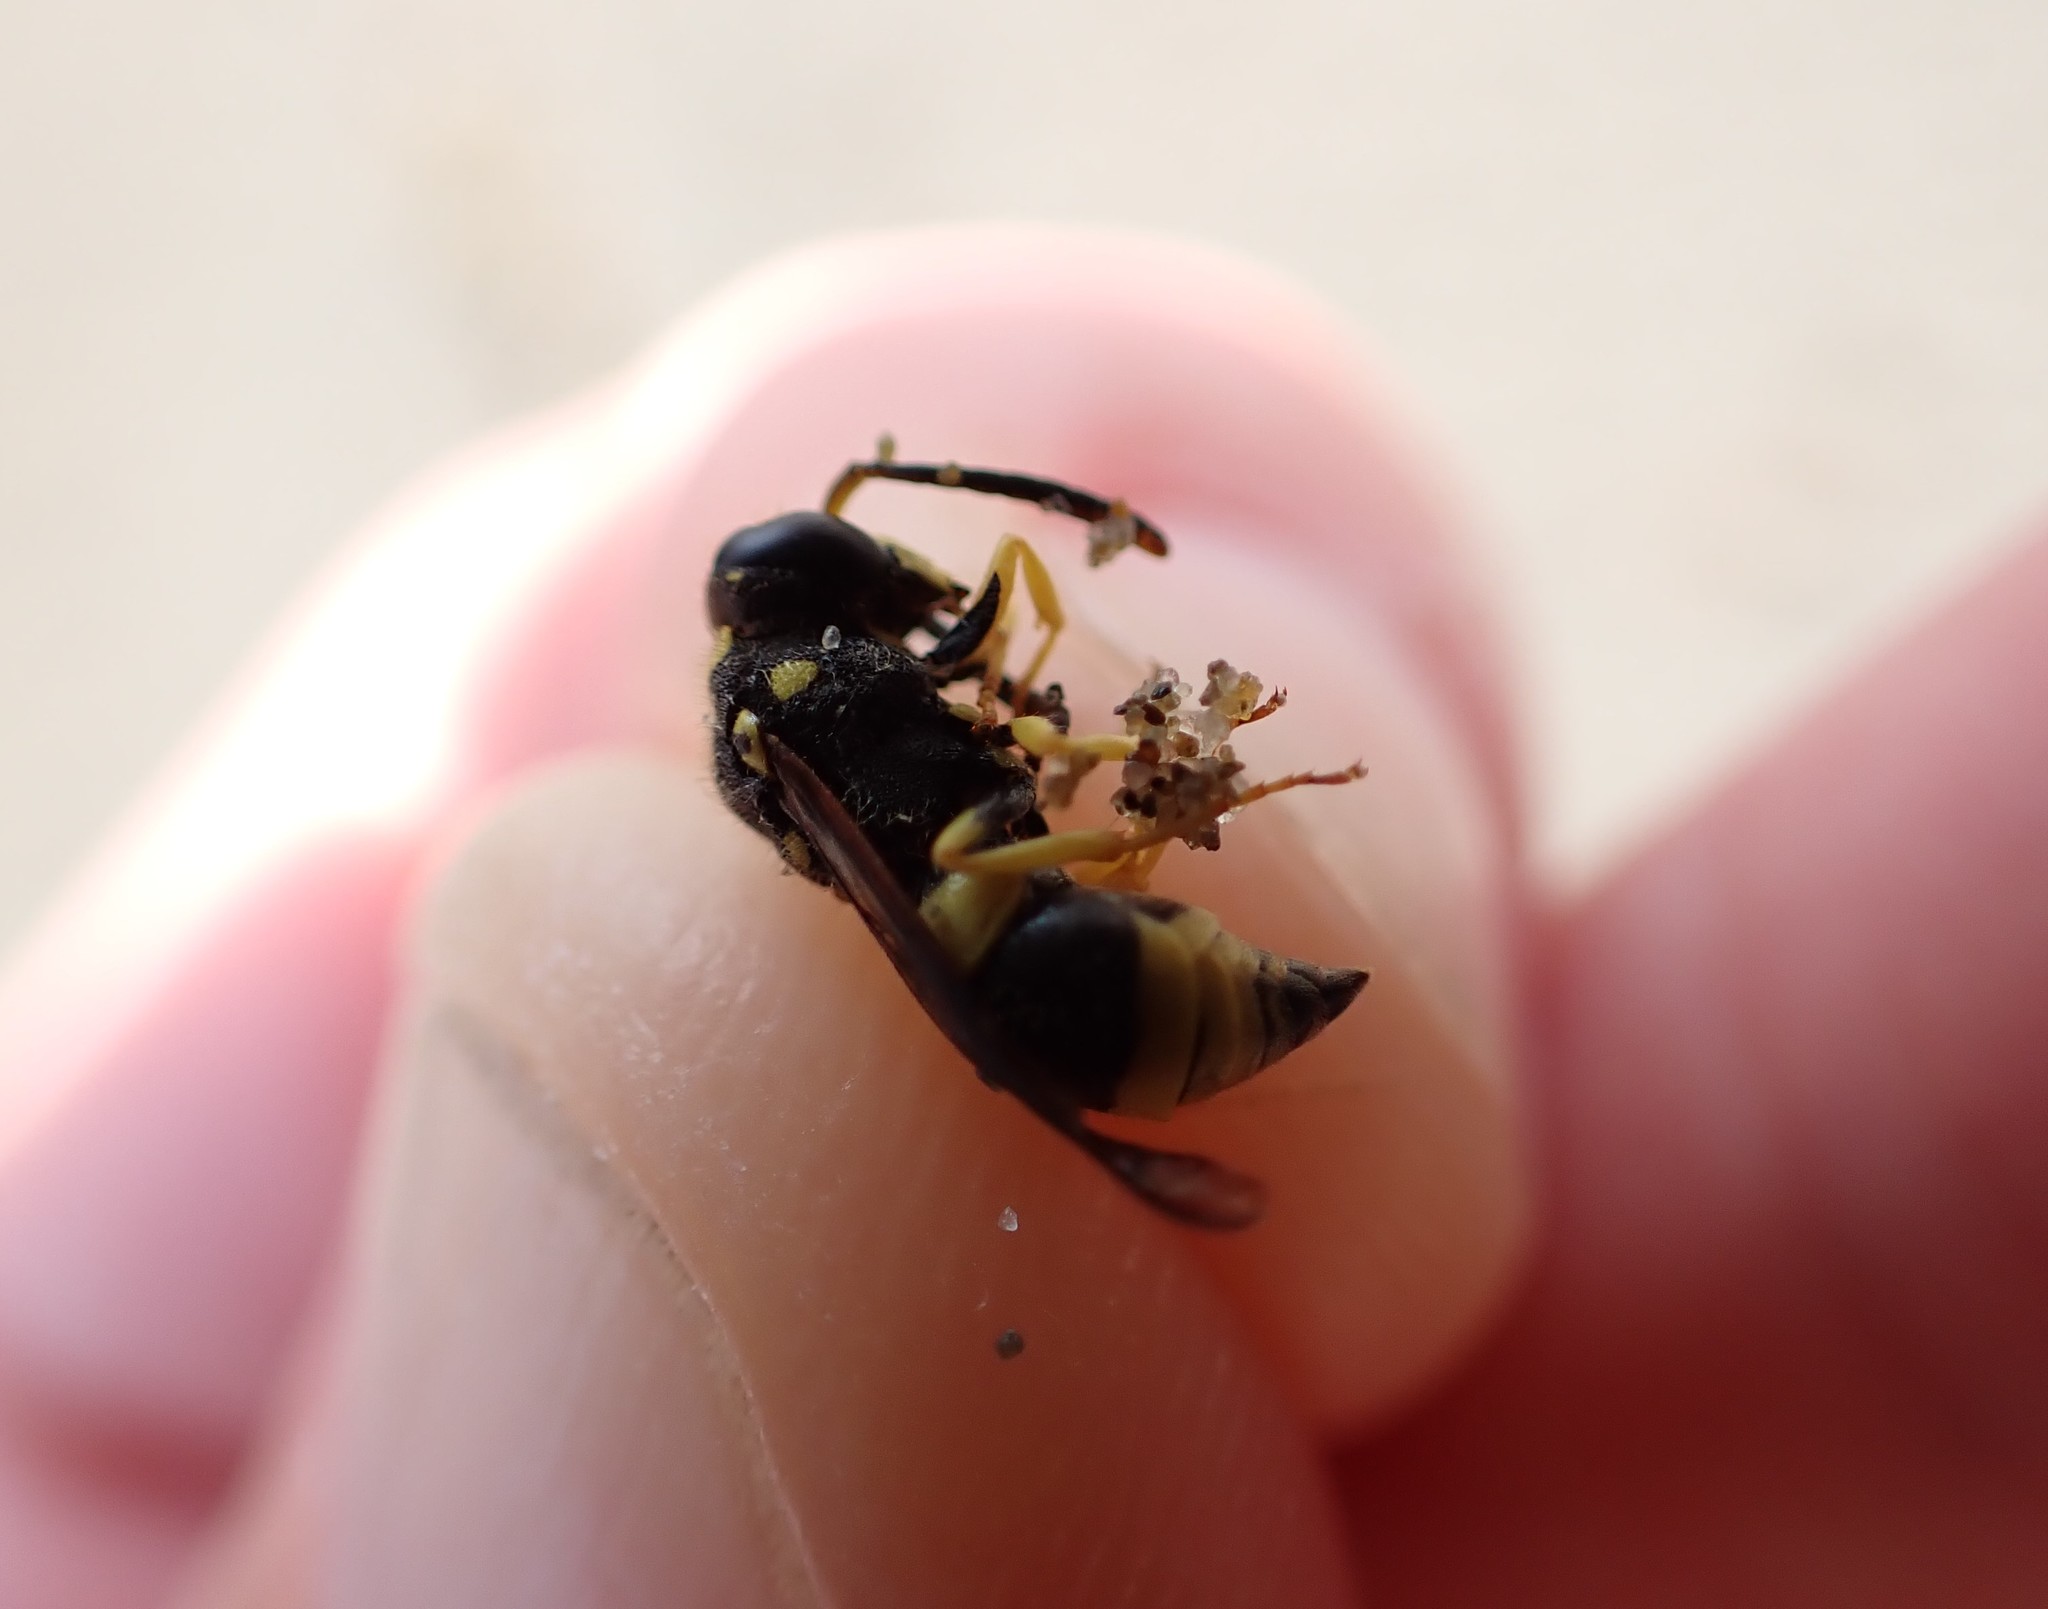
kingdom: Animalia
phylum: Arthropoda
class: Insecta
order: Hymenoptera
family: Vespidae
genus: Ancistrocerus
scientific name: Ancistrocerus gazella
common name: European tube wasp
